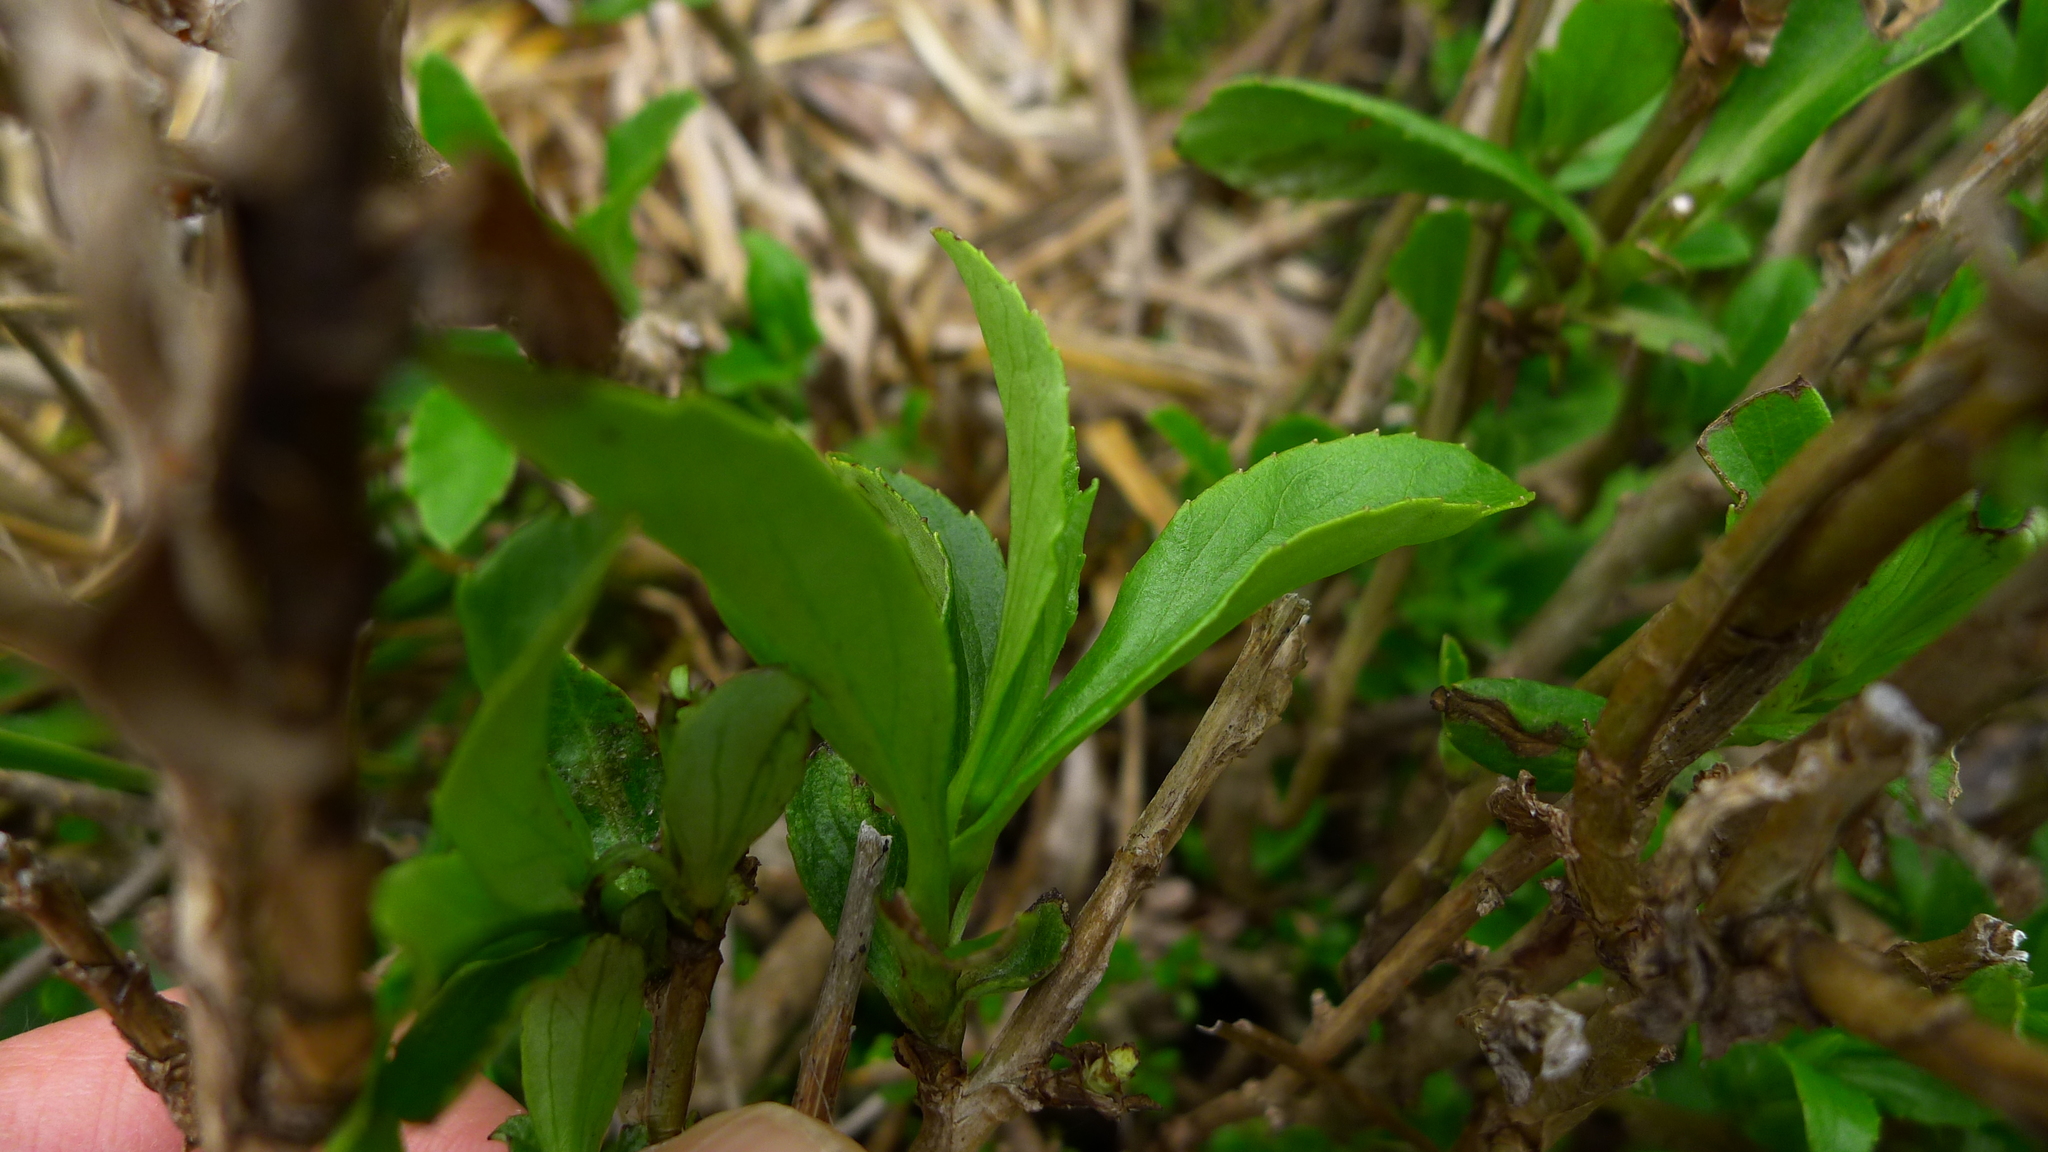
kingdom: Plantae
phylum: Tracheophyta
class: Magnoliopsida
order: Asterales
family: Asteraceae
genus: Traversia
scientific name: Traversia baccharoides
